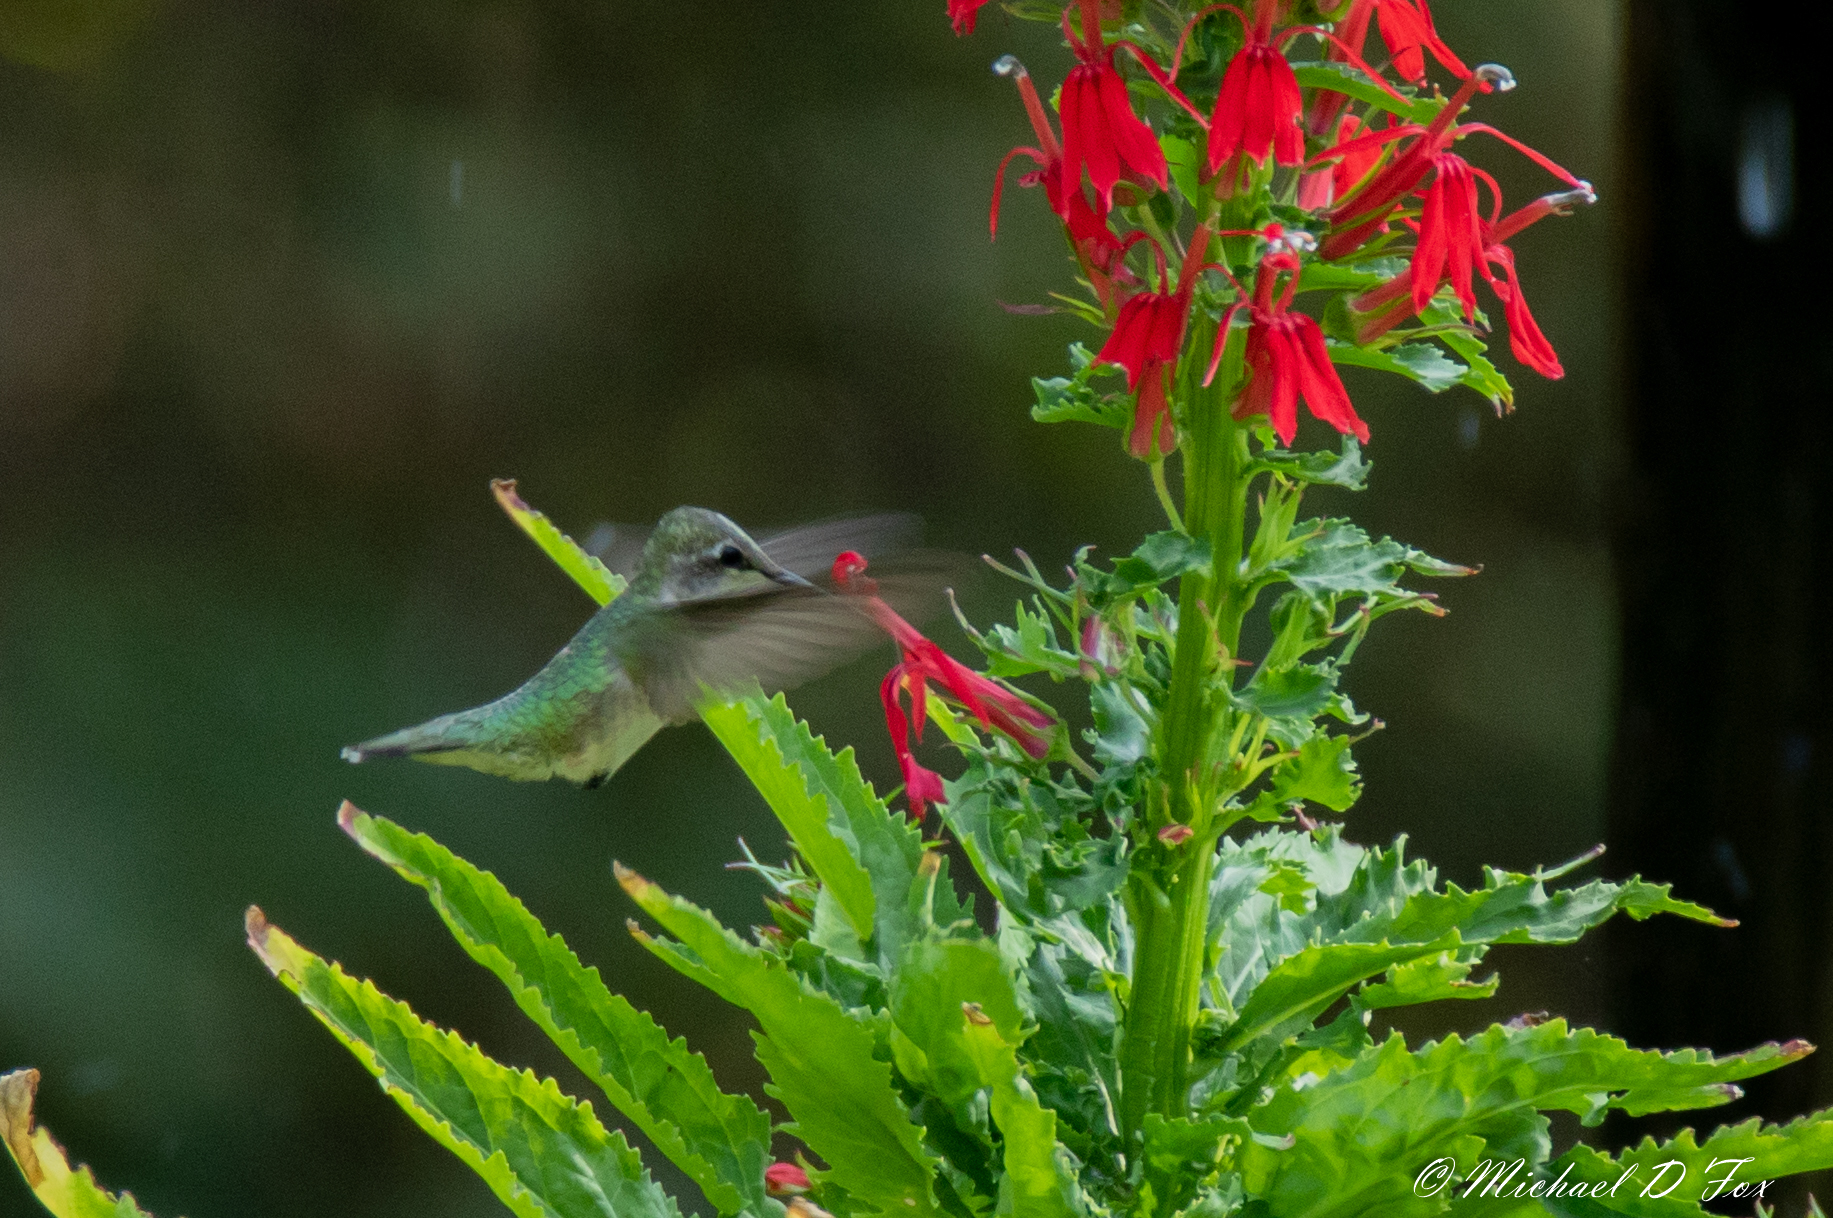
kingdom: Plantae
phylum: Tracheophyta
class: Magnoliopsida
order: Asterales
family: Campanulaceae
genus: Lobelia
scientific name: Lobelia cardinalis
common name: Cardinal flower
